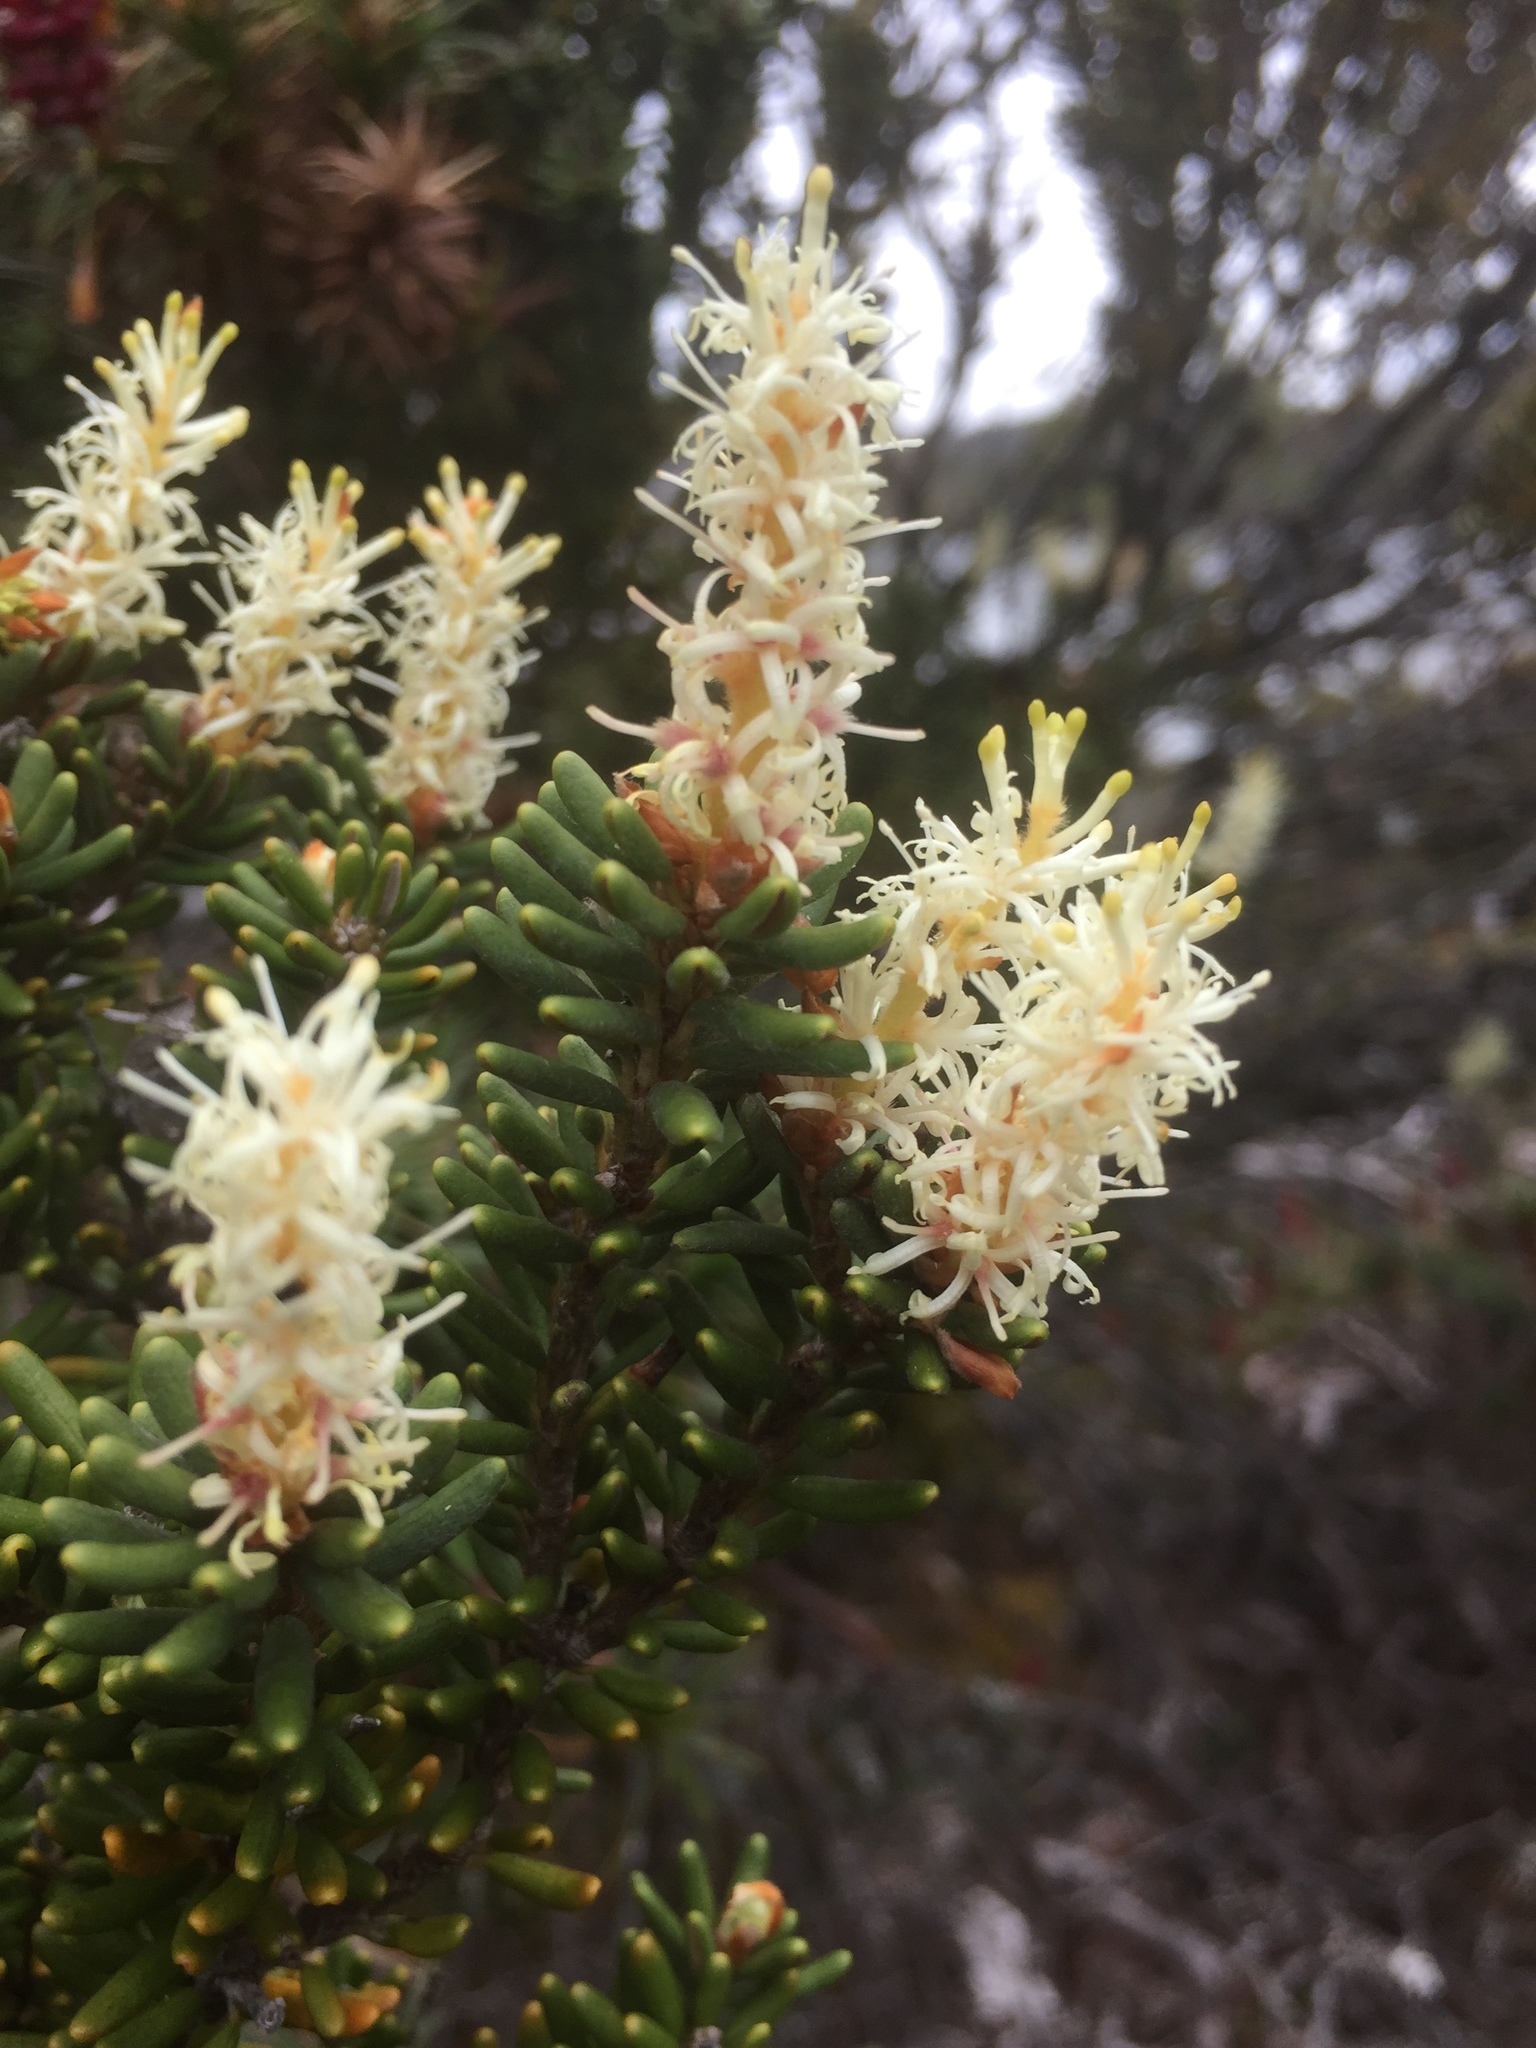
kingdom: Plantae
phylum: Tracheophyta
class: Magnoliopsida
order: Proteales
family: Proteaceae
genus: Orites
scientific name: Orites revolutus
